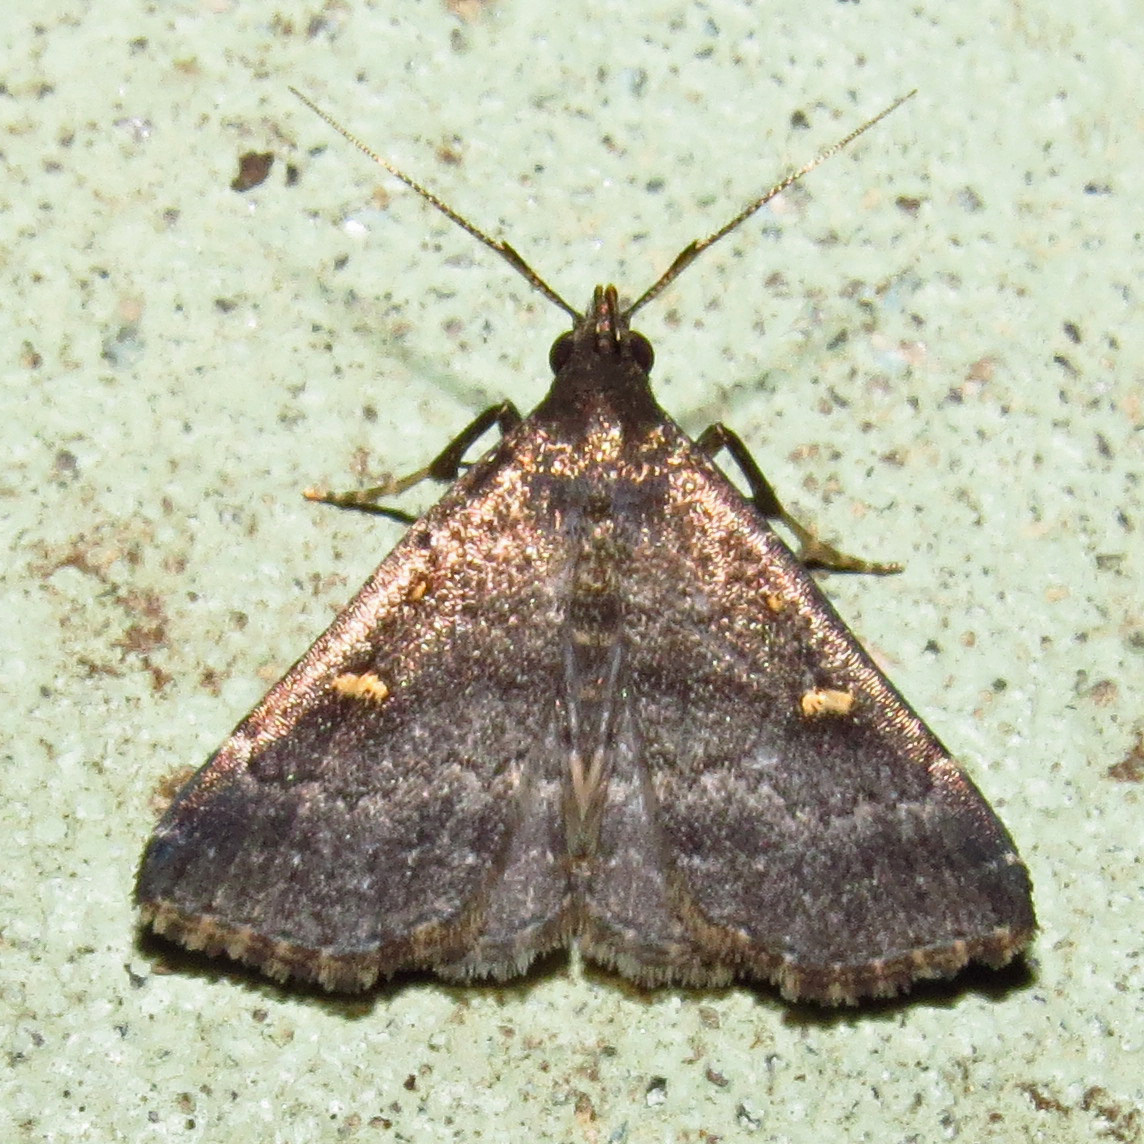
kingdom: Animalia
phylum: Arthropoda
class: Insecta
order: Lepidoptera
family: Erebidae
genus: Tetanolita
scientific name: Tetanolita mynesalis
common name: Smoky tetanolita moth
